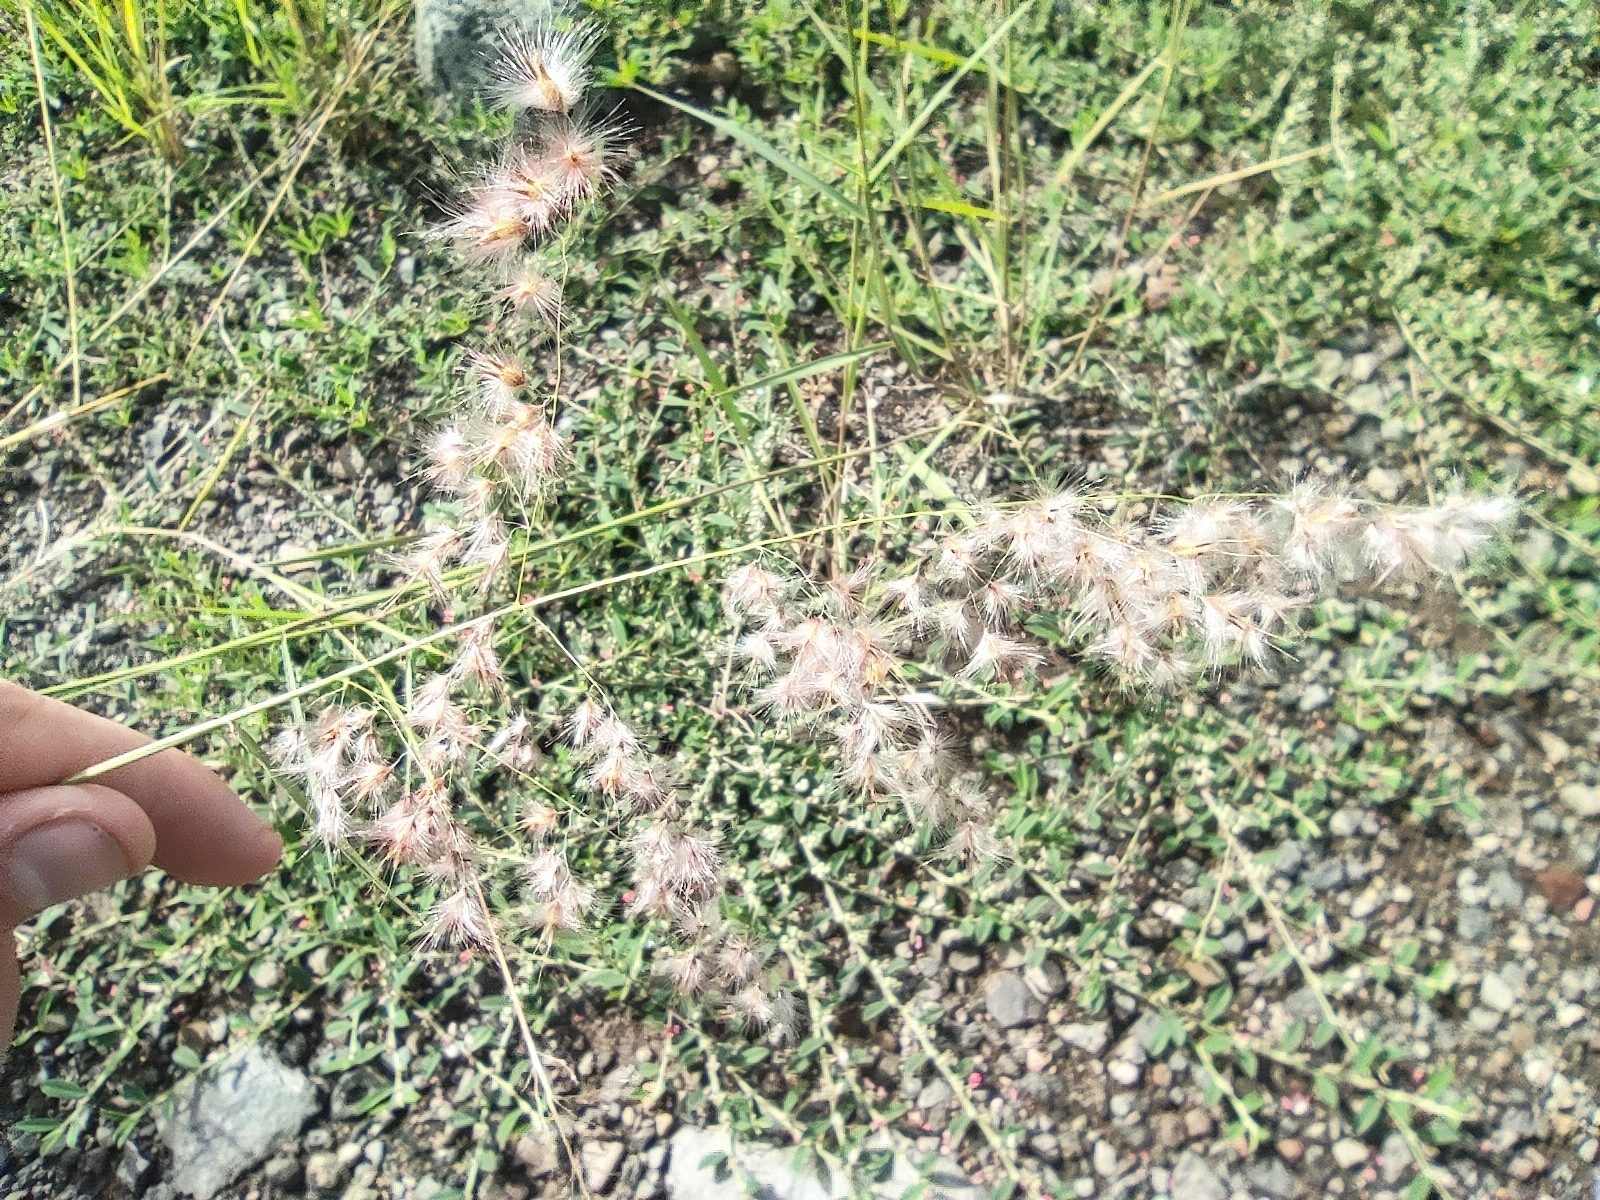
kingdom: Plantae
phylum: Tracheophyta
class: Liliopsida
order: Poales
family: Poaceae
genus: Melinis
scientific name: Melinis repens
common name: Rose natal grass
